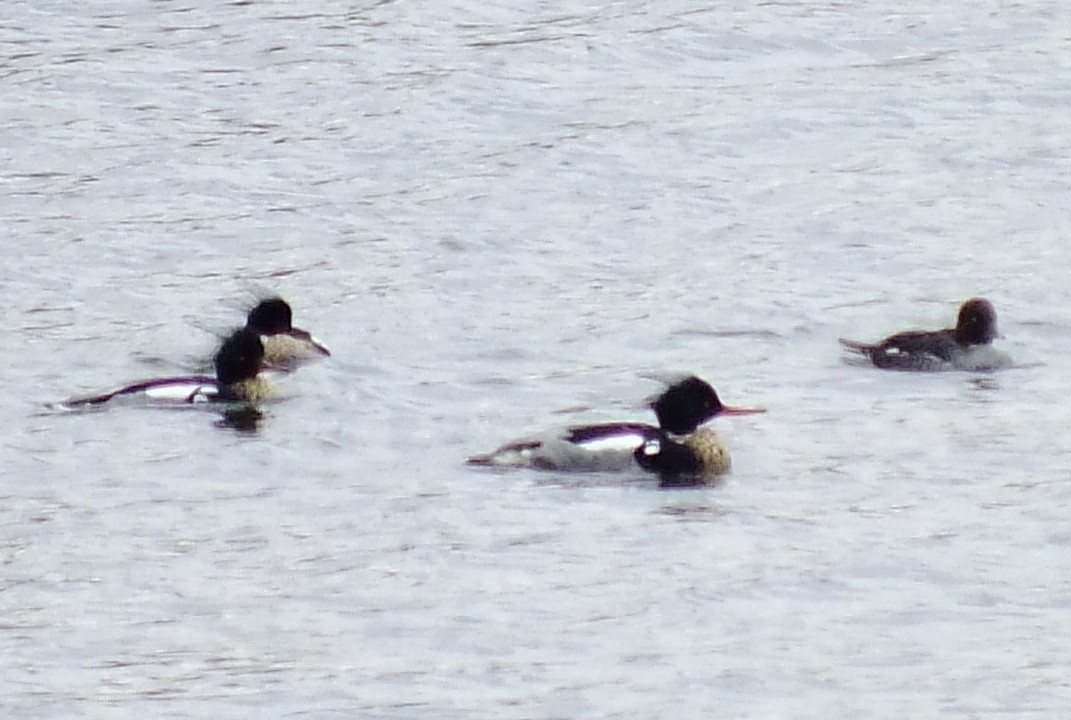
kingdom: Animalia
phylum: Chordata
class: Aves
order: Anseriformes
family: Anatidae
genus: Mergus
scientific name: Mergus serrator
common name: Red-breasted merganser
